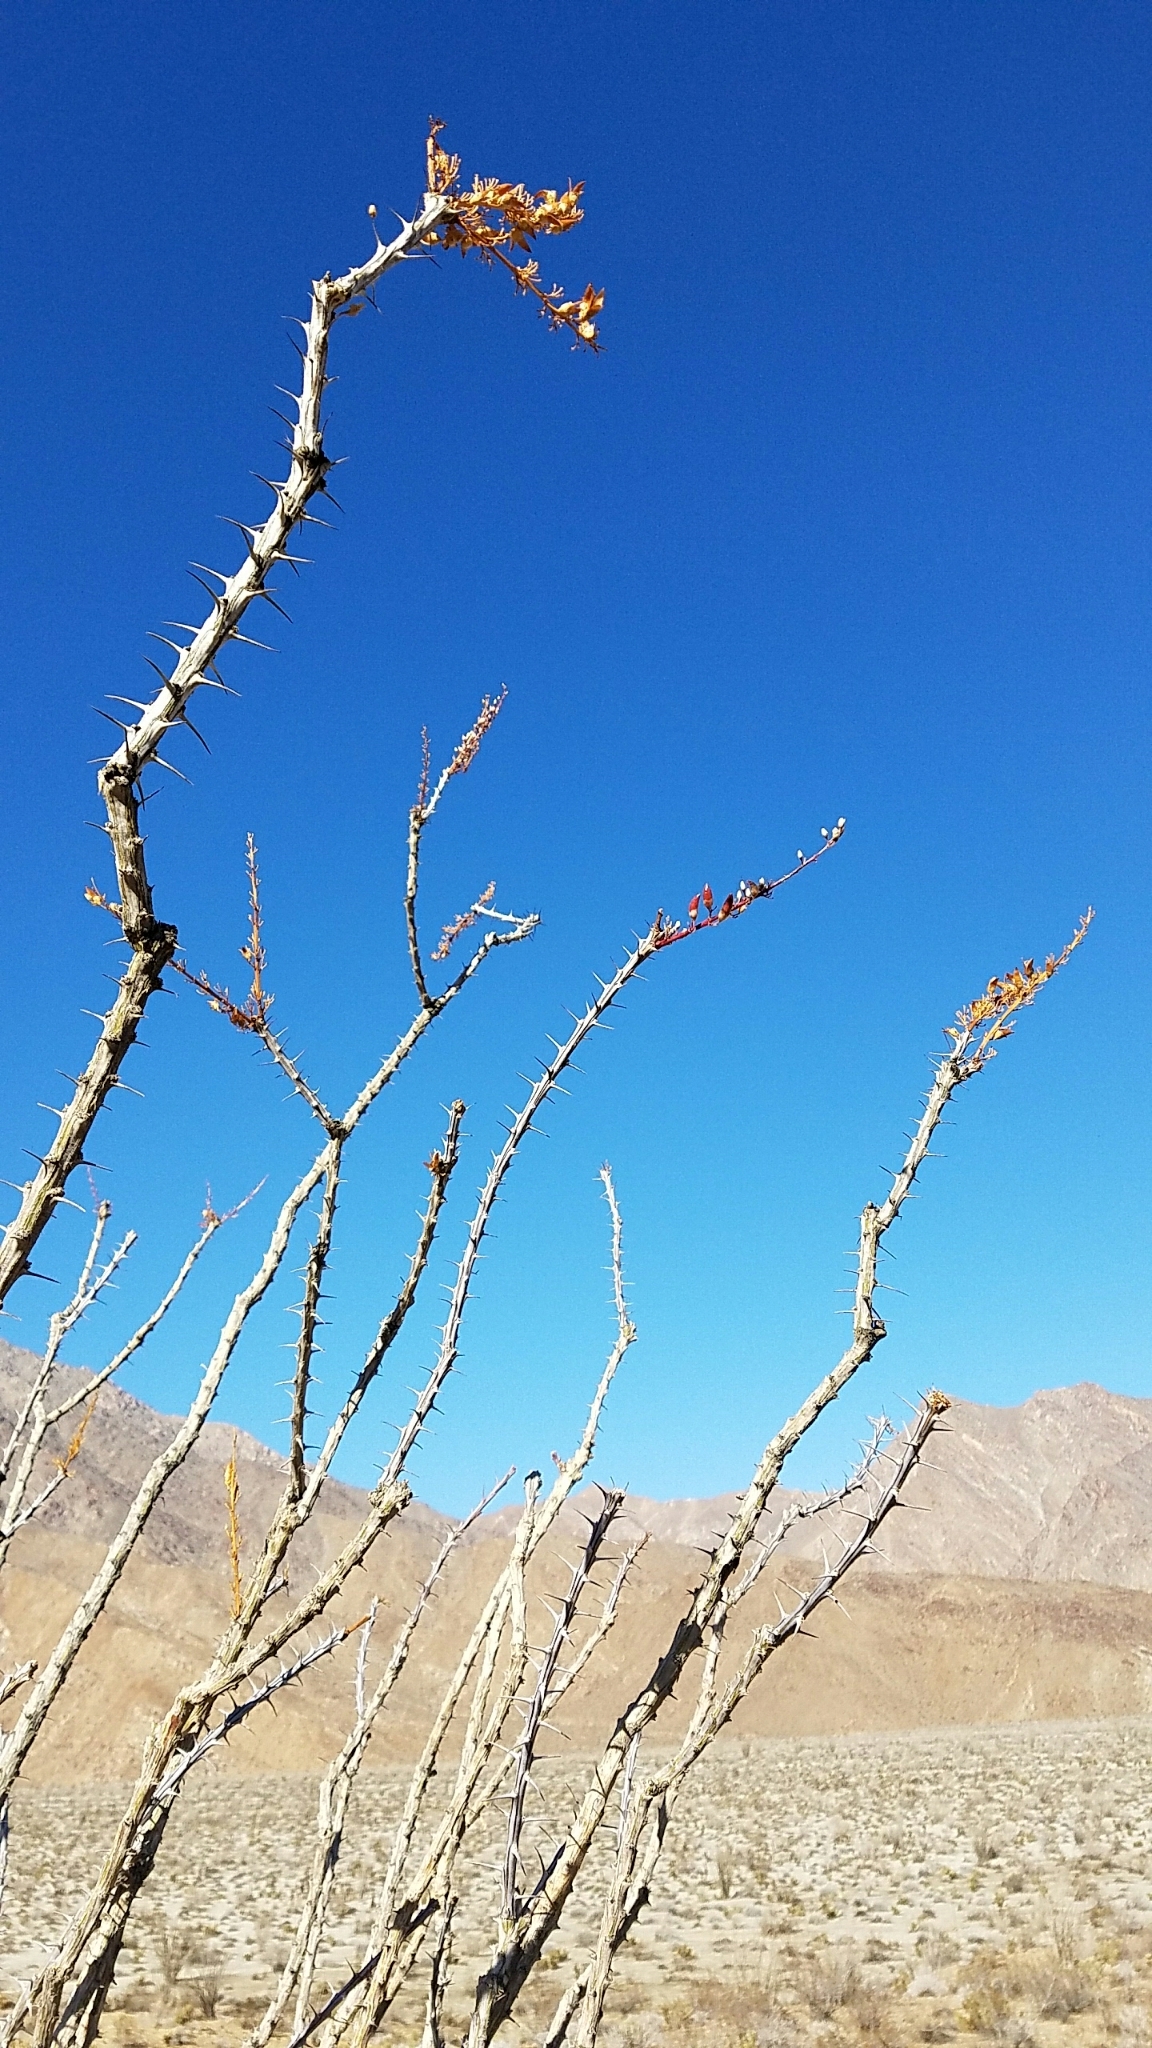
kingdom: Plantae
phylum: Tracheophyta
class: Magnoliopsida
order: Ericales
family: Fouquieriaceae
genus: Fouquieria
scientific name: Fouquieria splendens
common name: Vine-cactus
